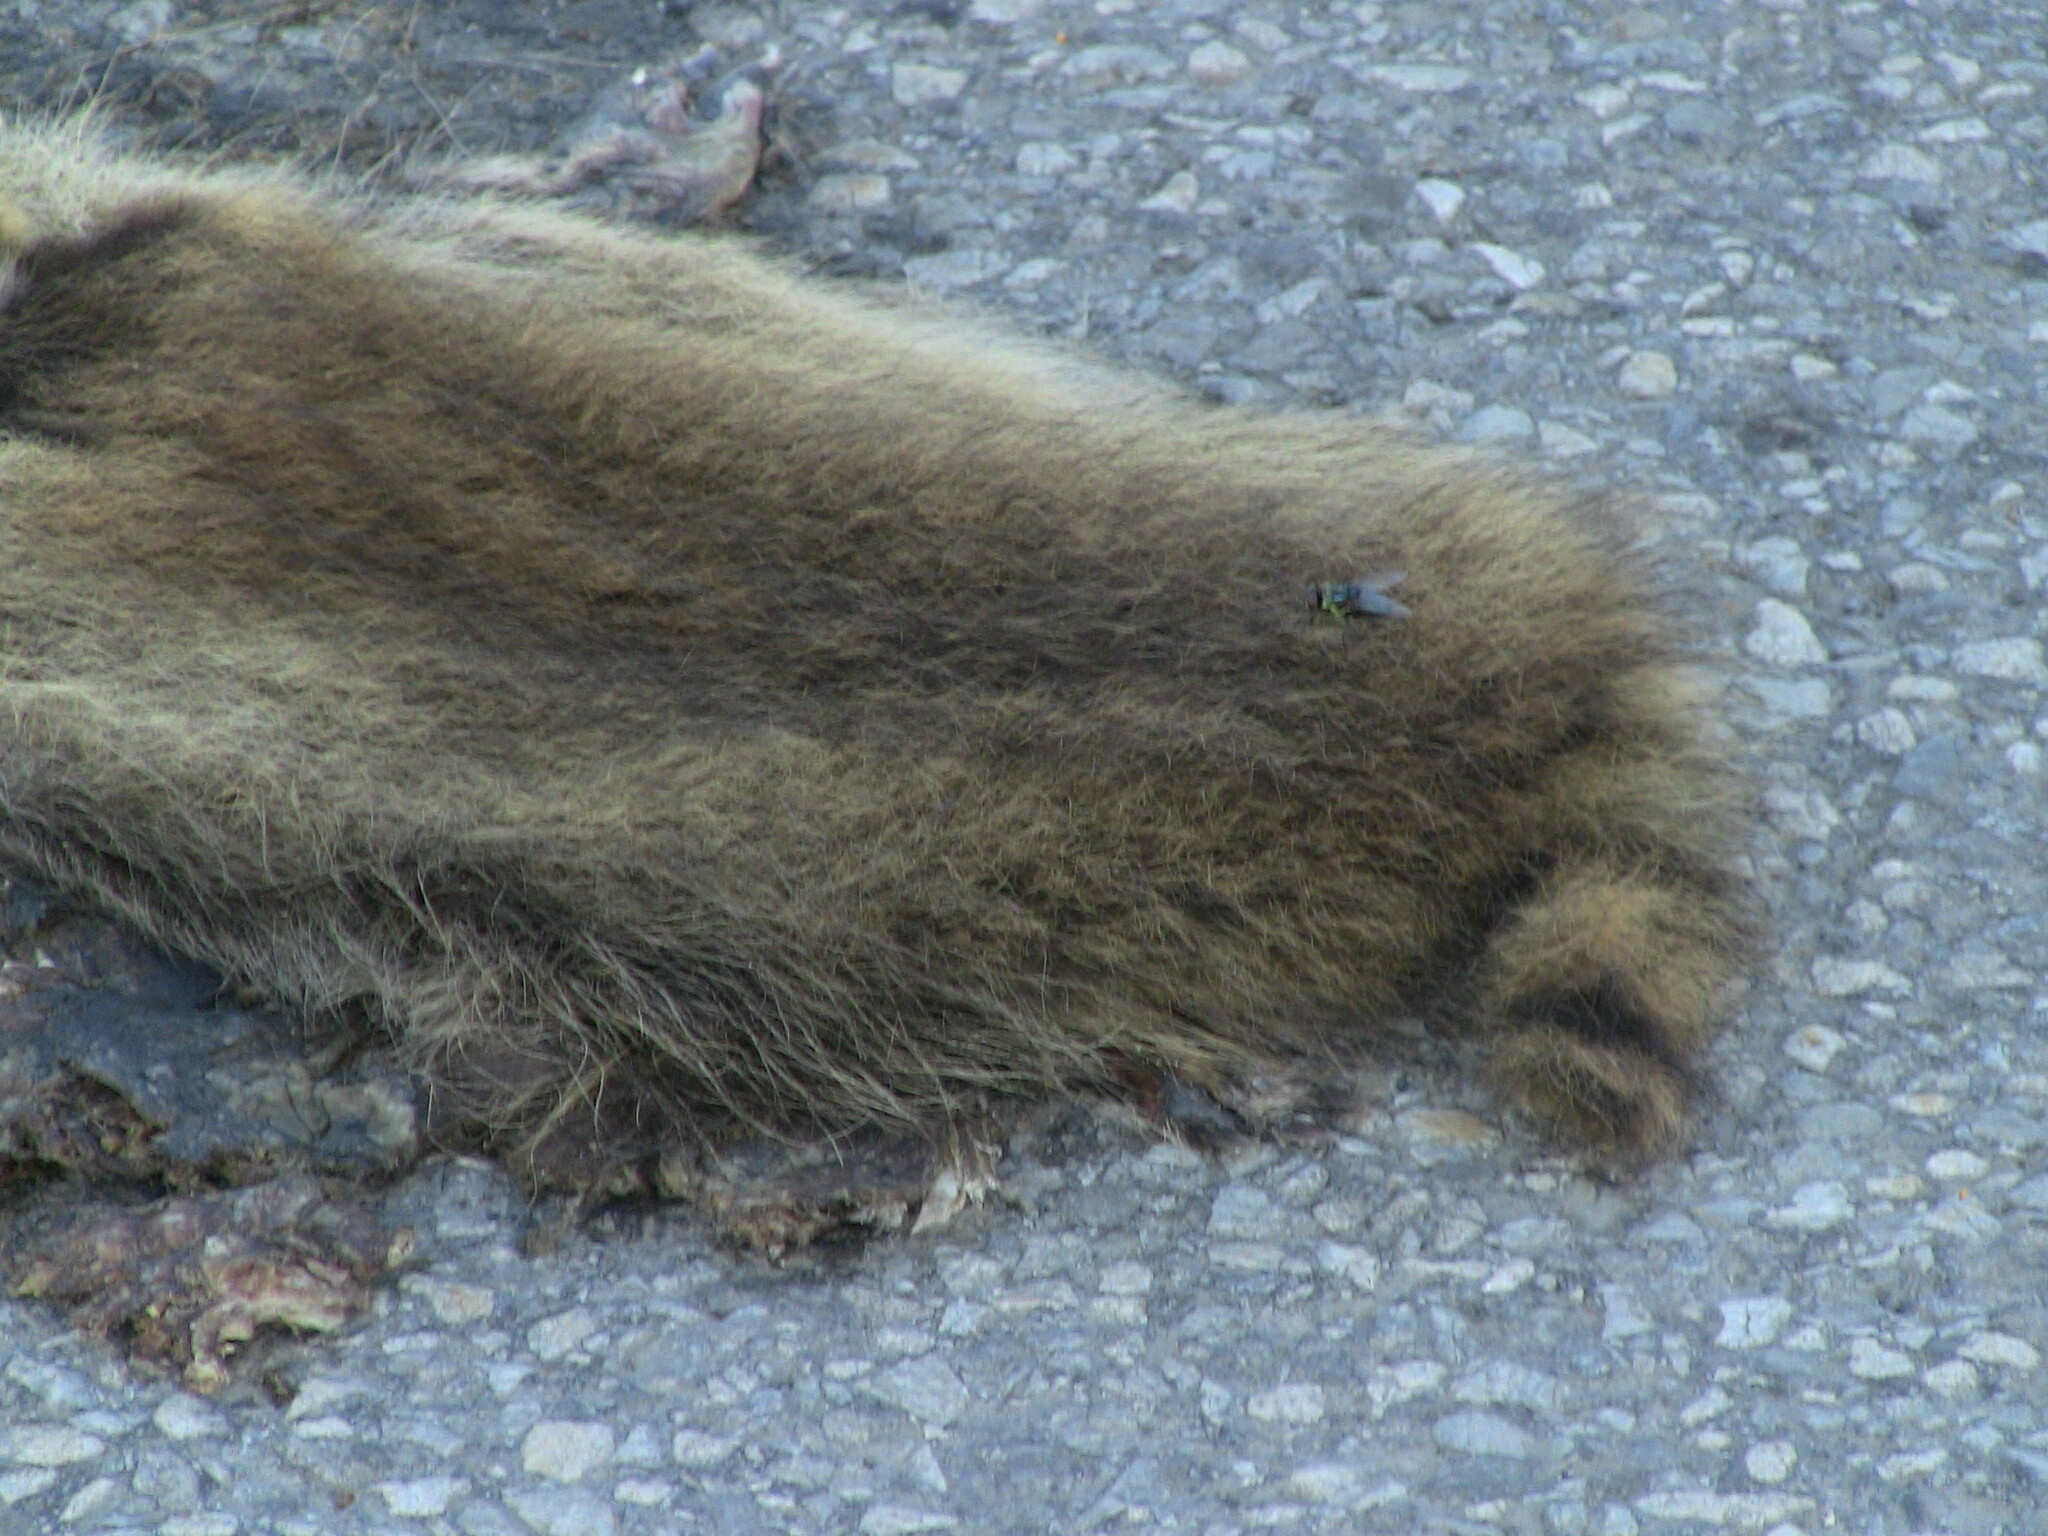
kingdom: Animalia
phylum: Chordata
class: Mammalia
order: Carnivora
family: Procyonidae
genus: Procyon
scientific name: Procyon lotor
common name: Raccoon
